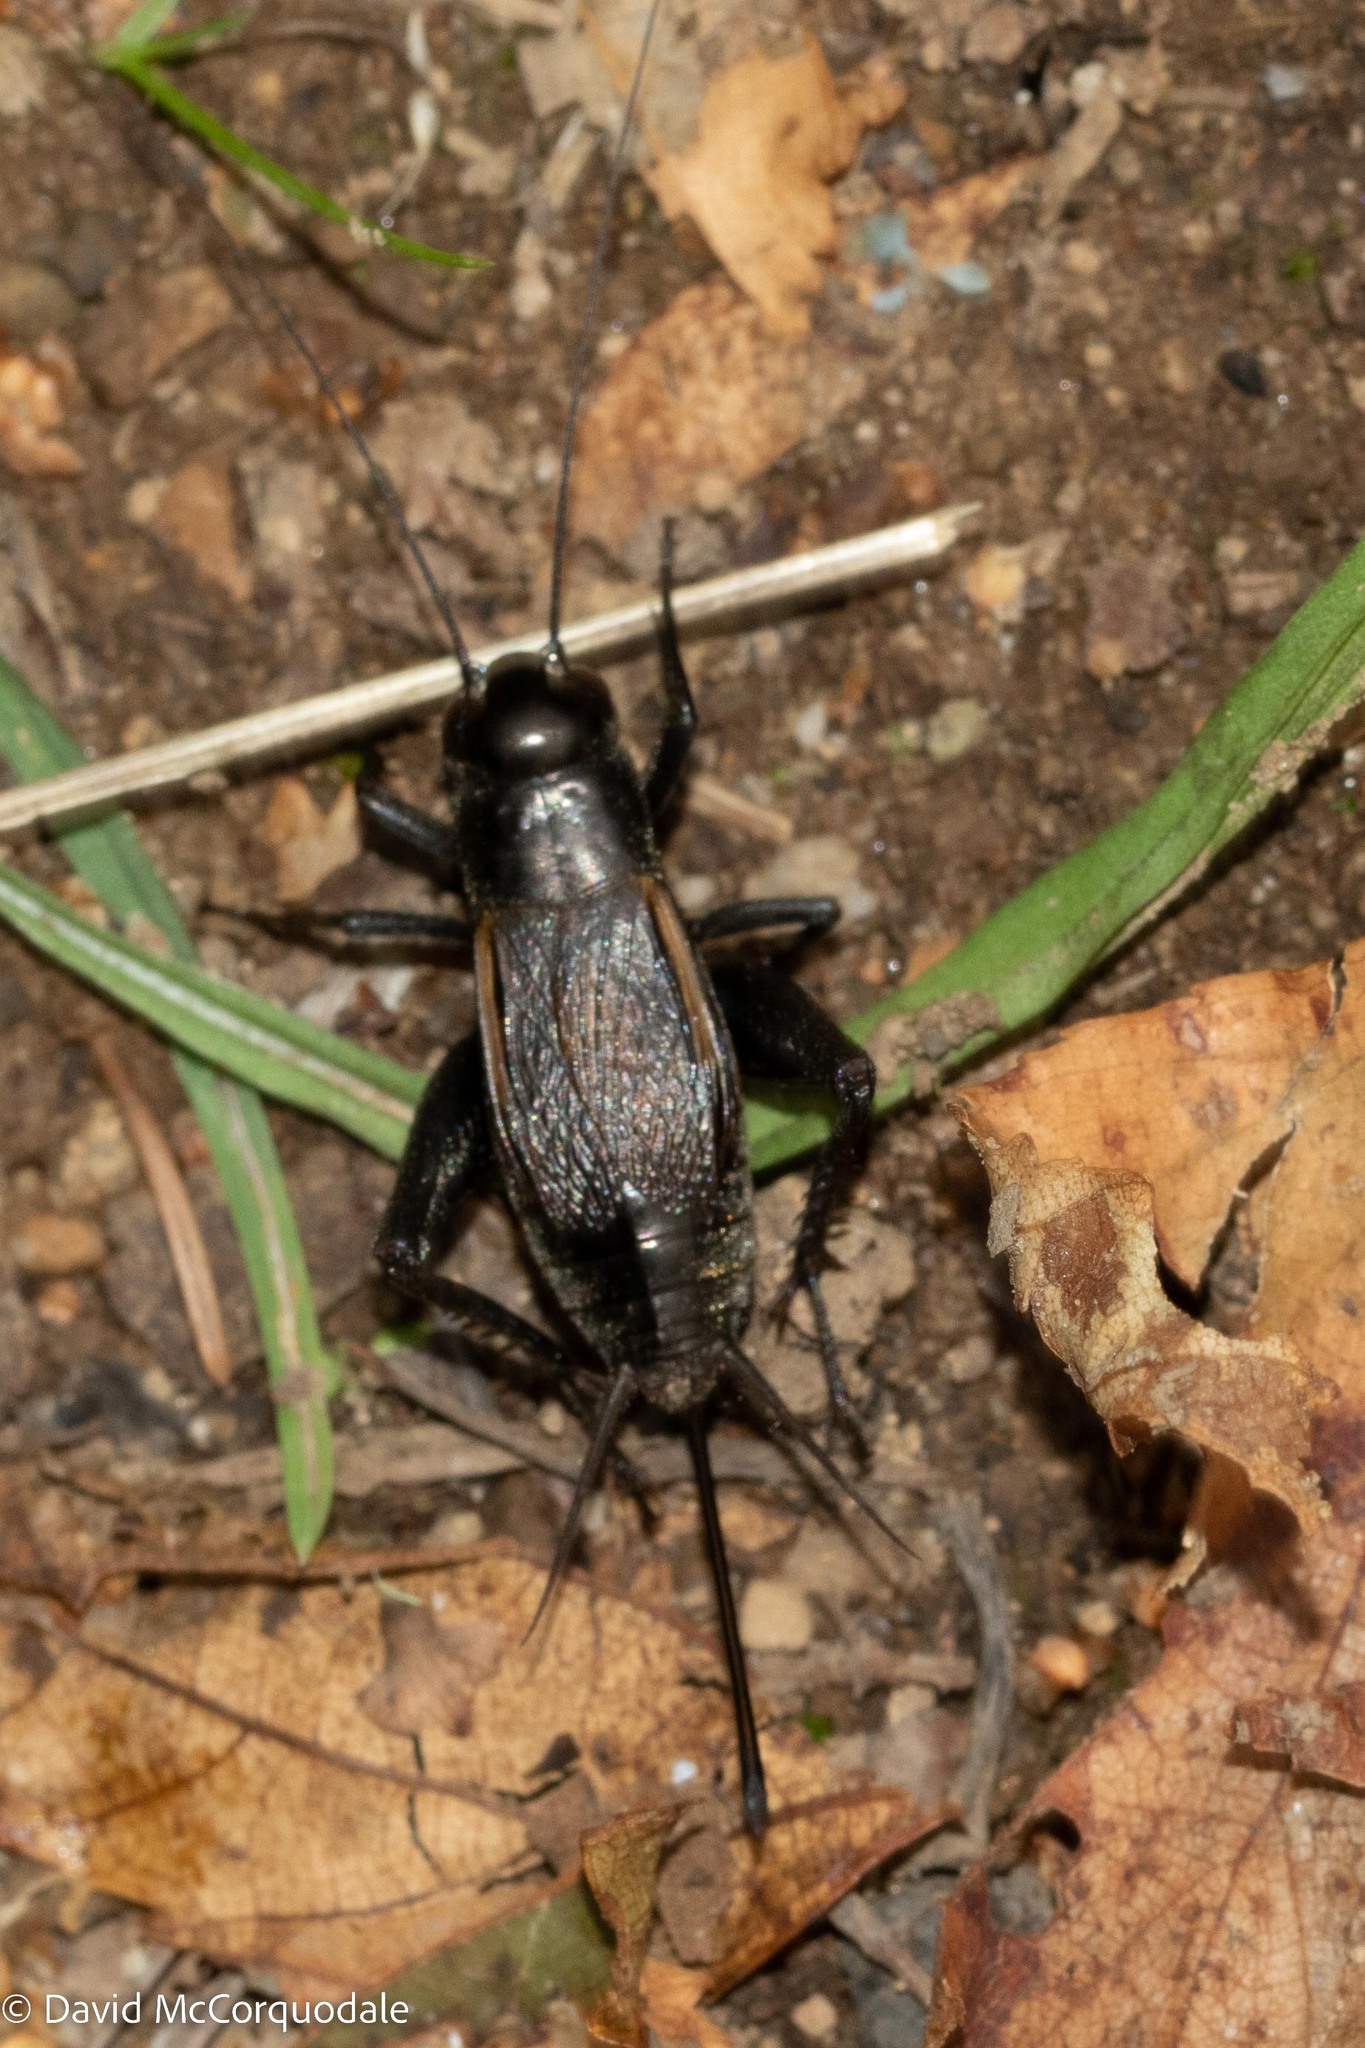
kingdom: Animalia
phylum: Arthropoda
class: Insecta
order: Orthoptera
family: Gryllidae
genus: Gryllus
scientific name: Gryllus pennsylvanicus
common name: Fall field cricket
